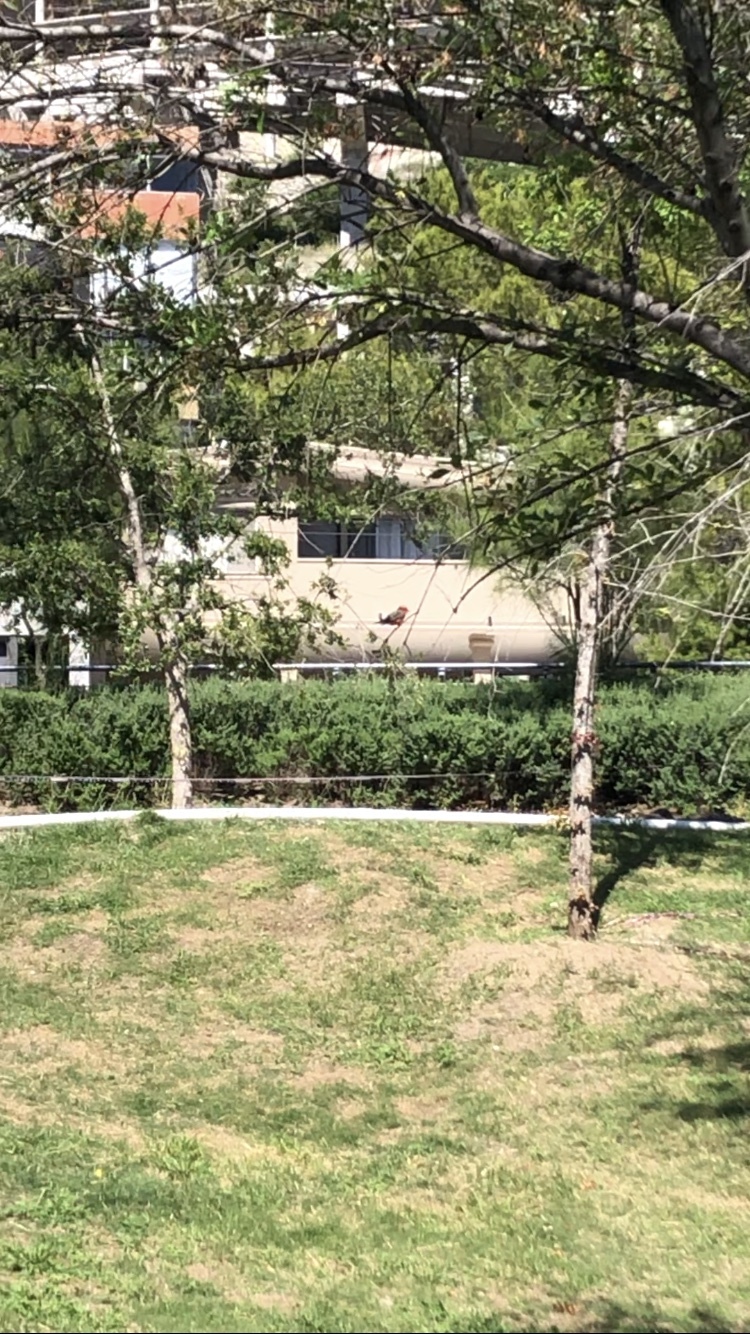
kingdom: Animalia
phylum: Chordata
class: Aves
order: Passeriformes
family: Fringillidae
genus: Haemorhous
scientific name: Haemorhous mexicanus
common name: House finch
